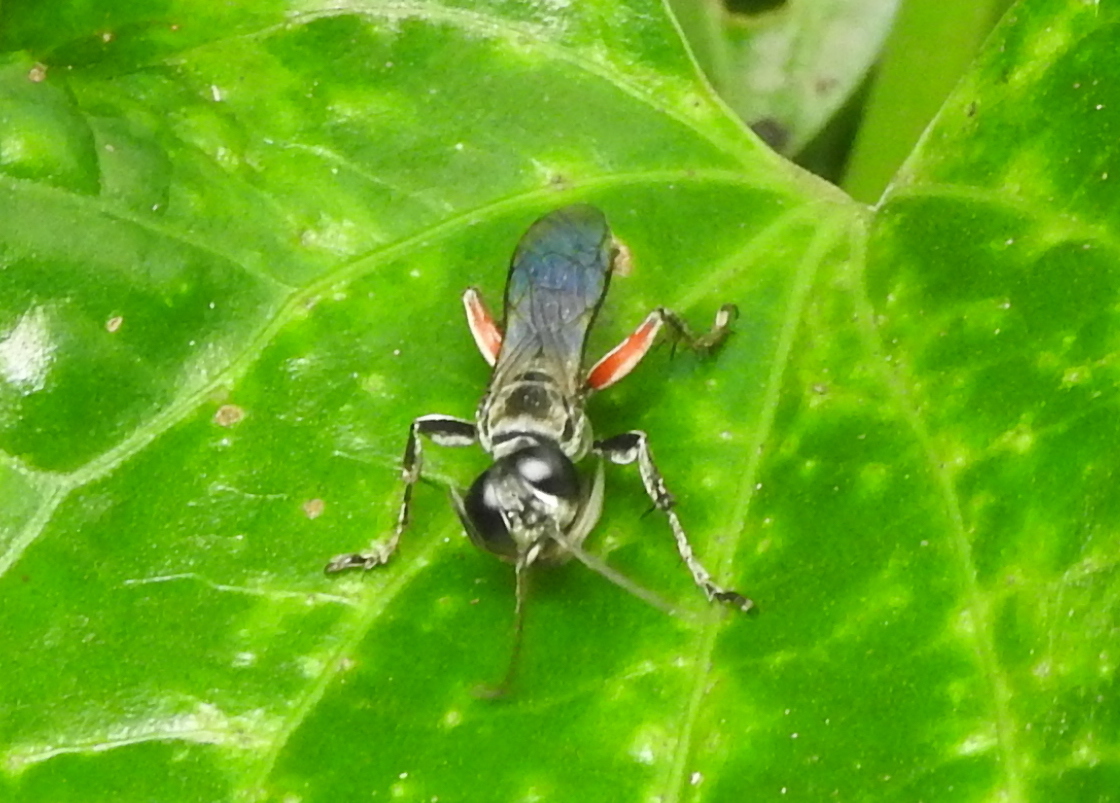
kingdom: Animalia
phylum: Arthropoda
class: Insecta
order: Hymenoptera
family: Crabronidae
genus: Liris
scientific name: Liris subtessellatus
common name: Crabronid wasp
